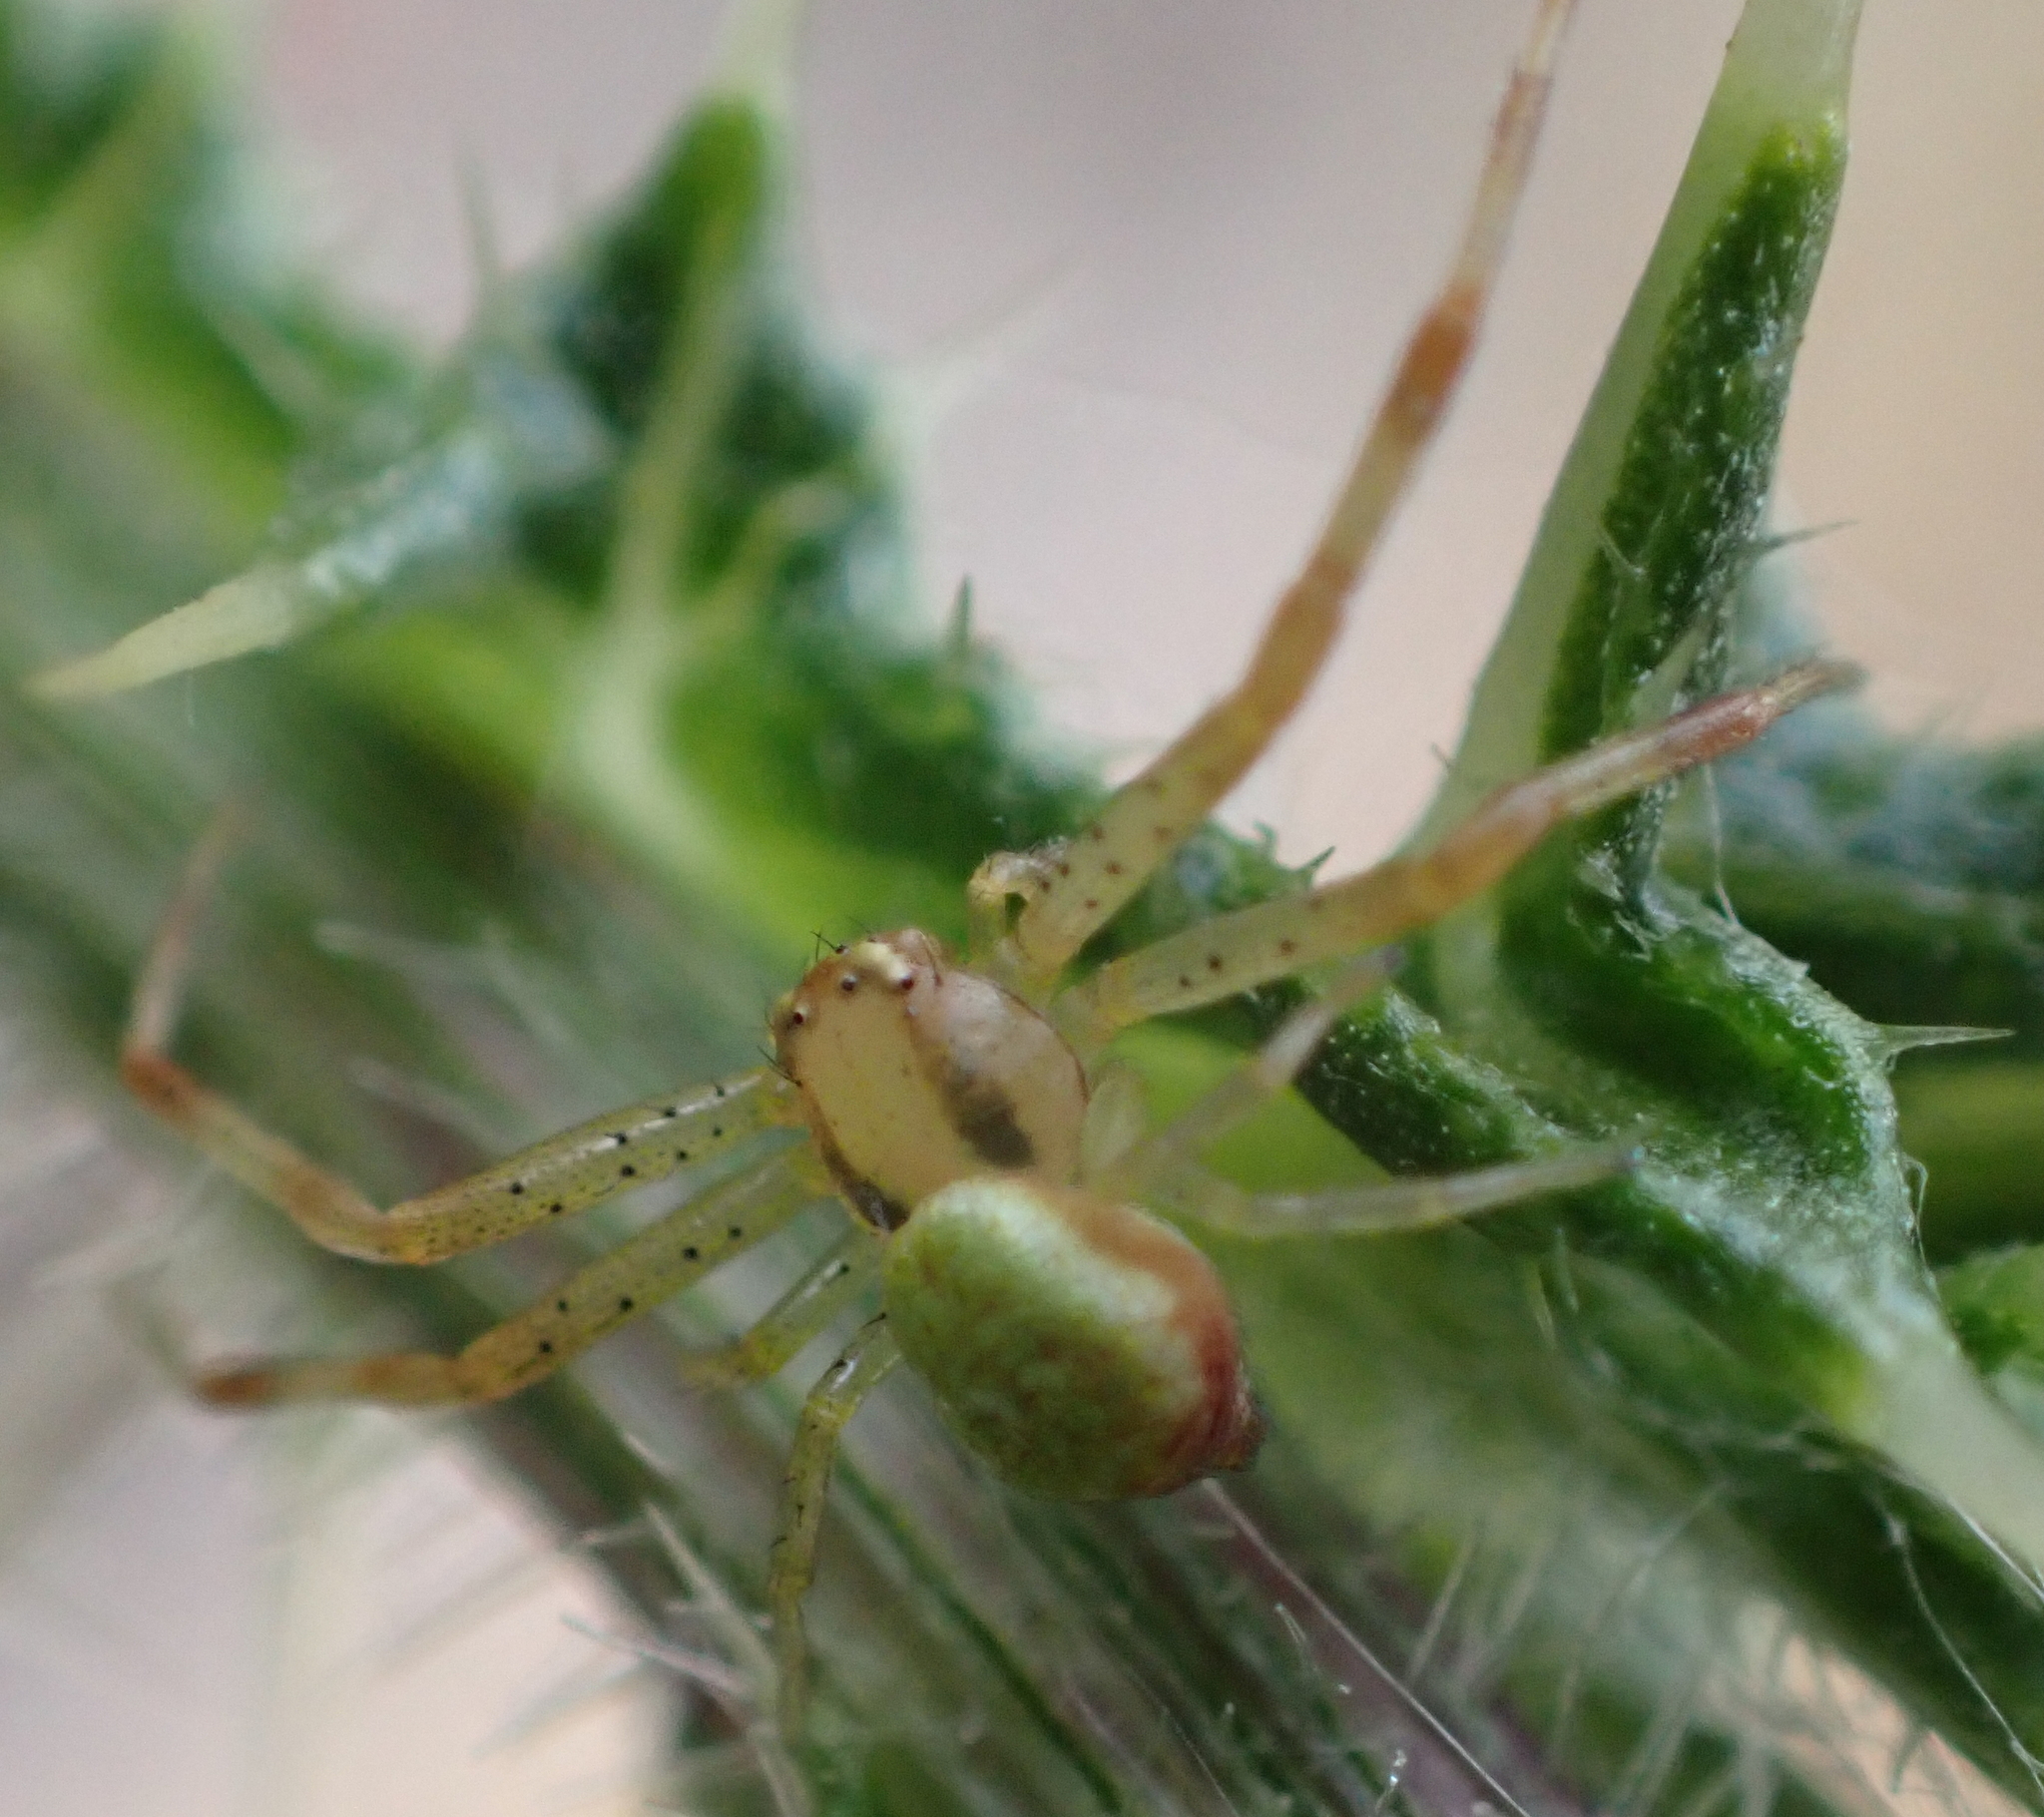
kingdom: Animalia
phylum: Arthropoda
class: Arachnida
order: Araneae
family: Thomisidae
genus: Ebrechtella
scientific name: Ebrechtella tricuspidata
